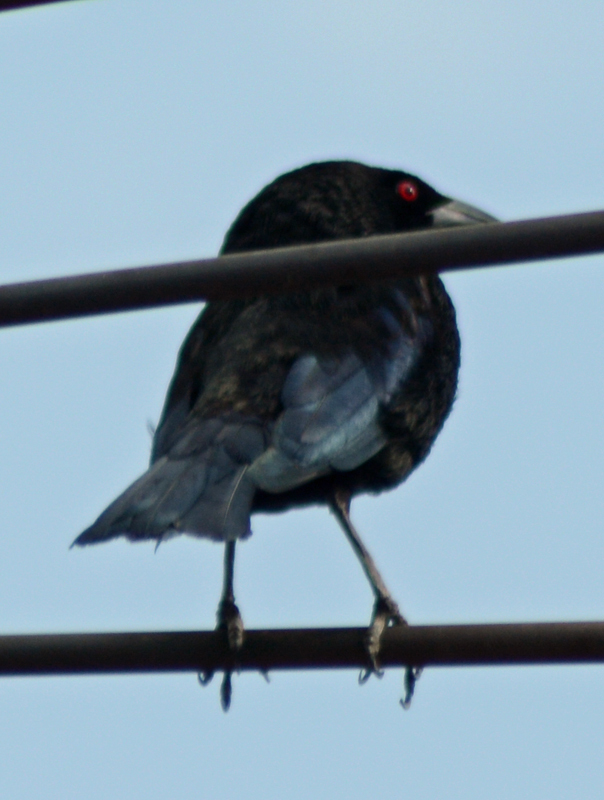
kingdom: Animalia
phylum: Chordata
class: Aves
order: Passeriformes
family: Icteridae
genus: Molothrus
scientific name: Molothrus aeneus
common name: Bronzed cowbird
